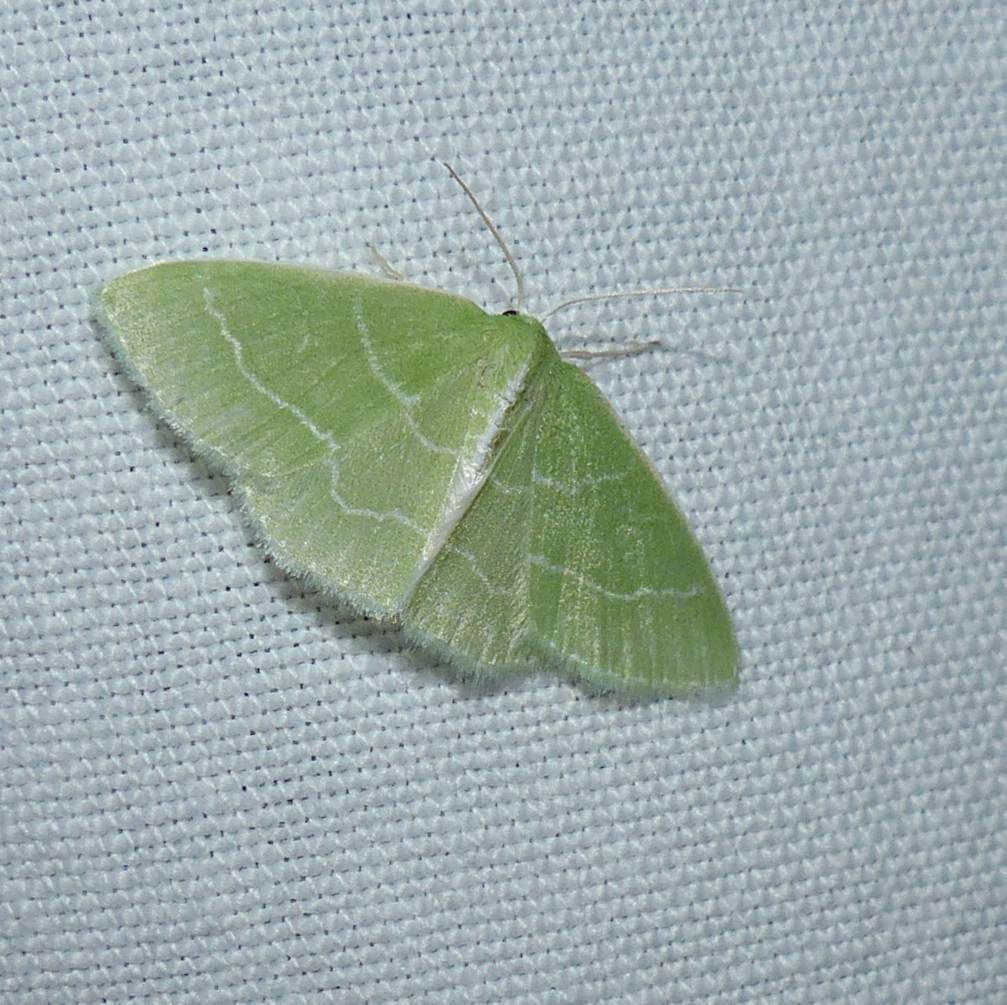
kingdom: Animalia
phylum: Arthropoda
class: Insecta
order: Lepidoptera
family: Geometridae
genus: Synchlora
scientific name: Synchlora aerata
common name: Wavy-lined emerald
